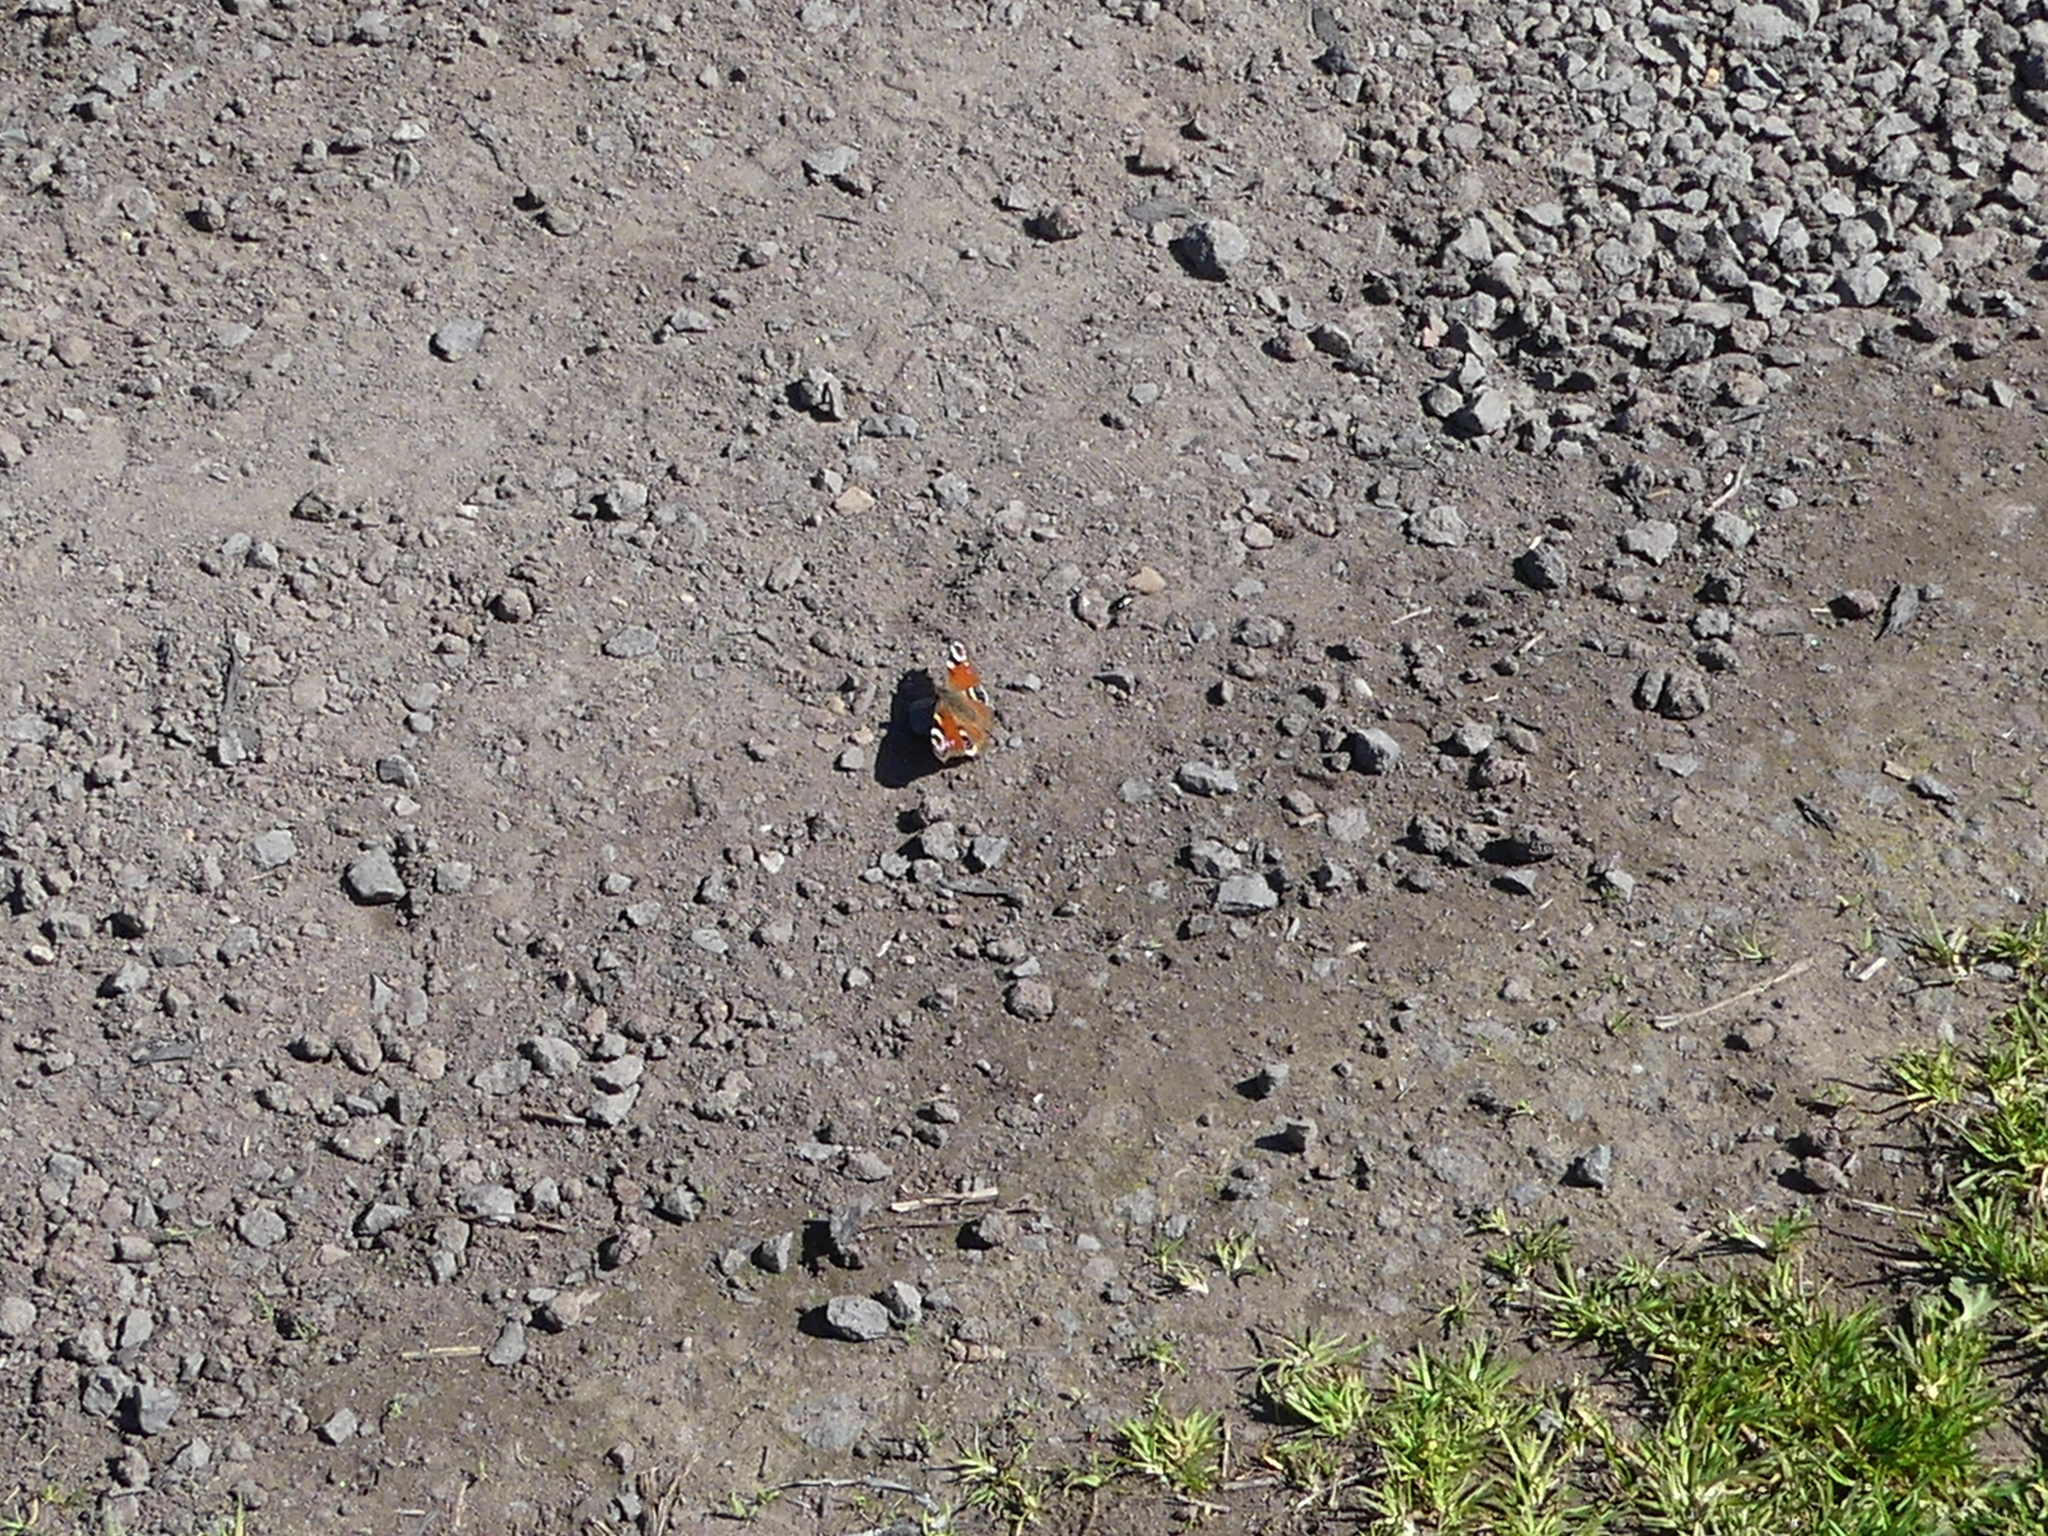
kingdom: Animalia
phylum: Arthropoda
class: Insecta
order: Lepidoptera
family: Nymphalidae
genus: Aglais
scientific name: Aglais io
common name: Peacock
